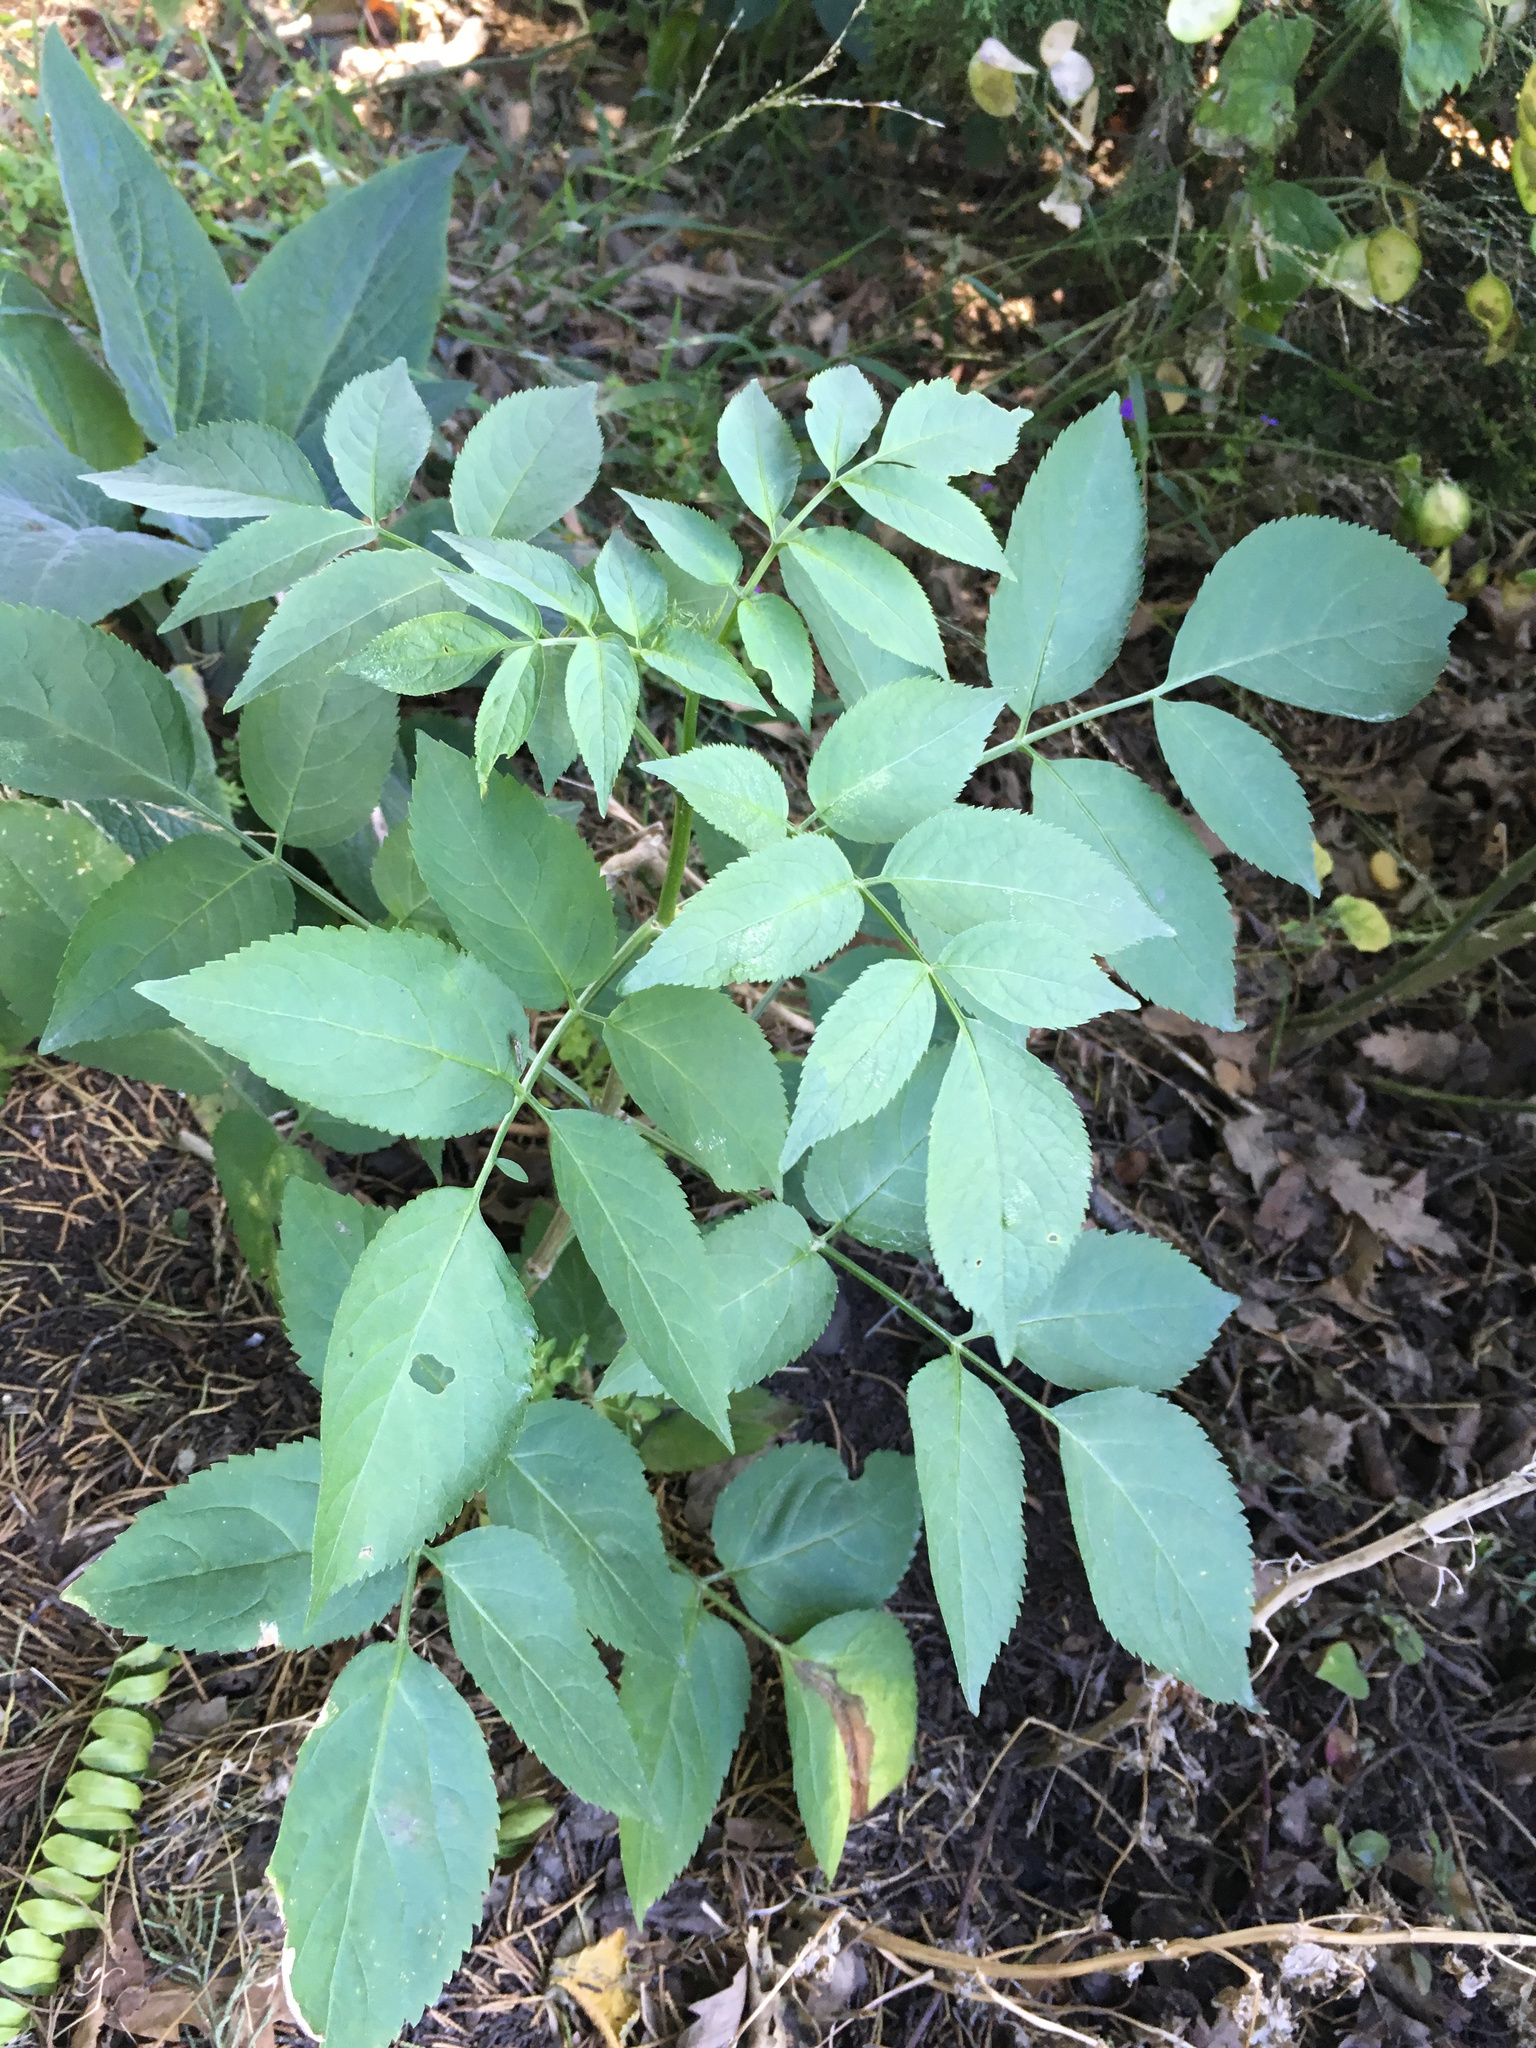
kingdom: Plantae
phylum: Tracheophyta
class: Magnoliopsida
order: Dipsacales
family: Viburnaceae
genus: Sambucus
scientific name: Sambucus nigra
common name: Elder
